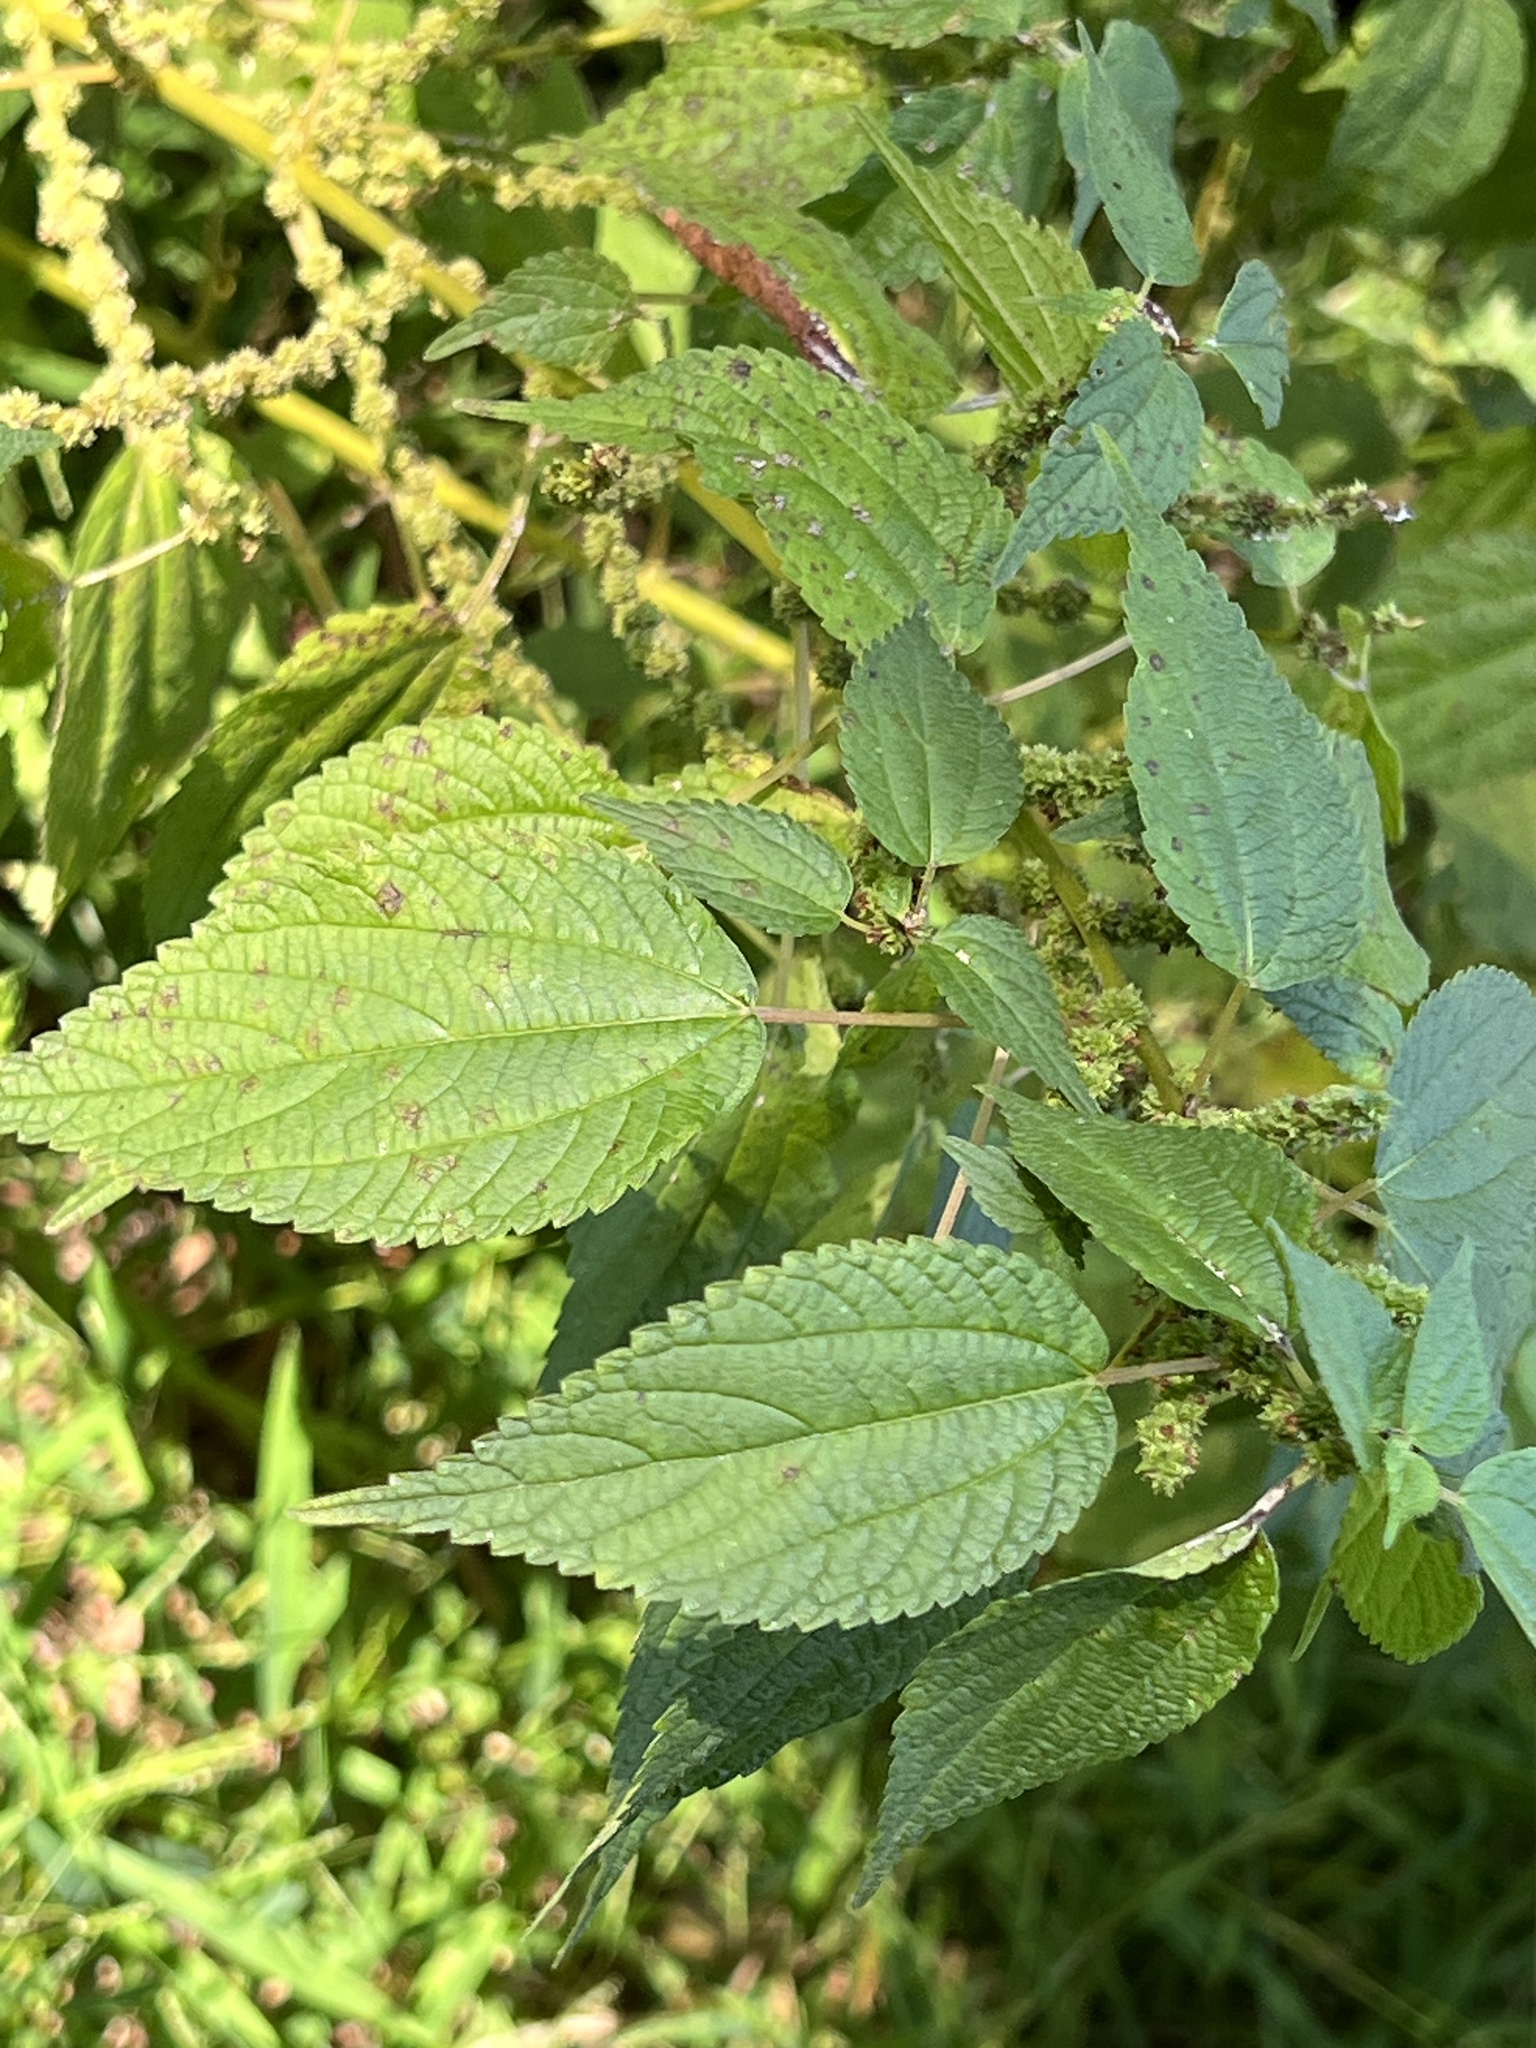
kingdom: Plantae
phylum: Tracheophyta
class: Magnoliopsida
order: Rosales
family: Urticaceae
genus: Boehmeria
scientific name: Boehmeria cylindrica
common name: Bog-hemp
